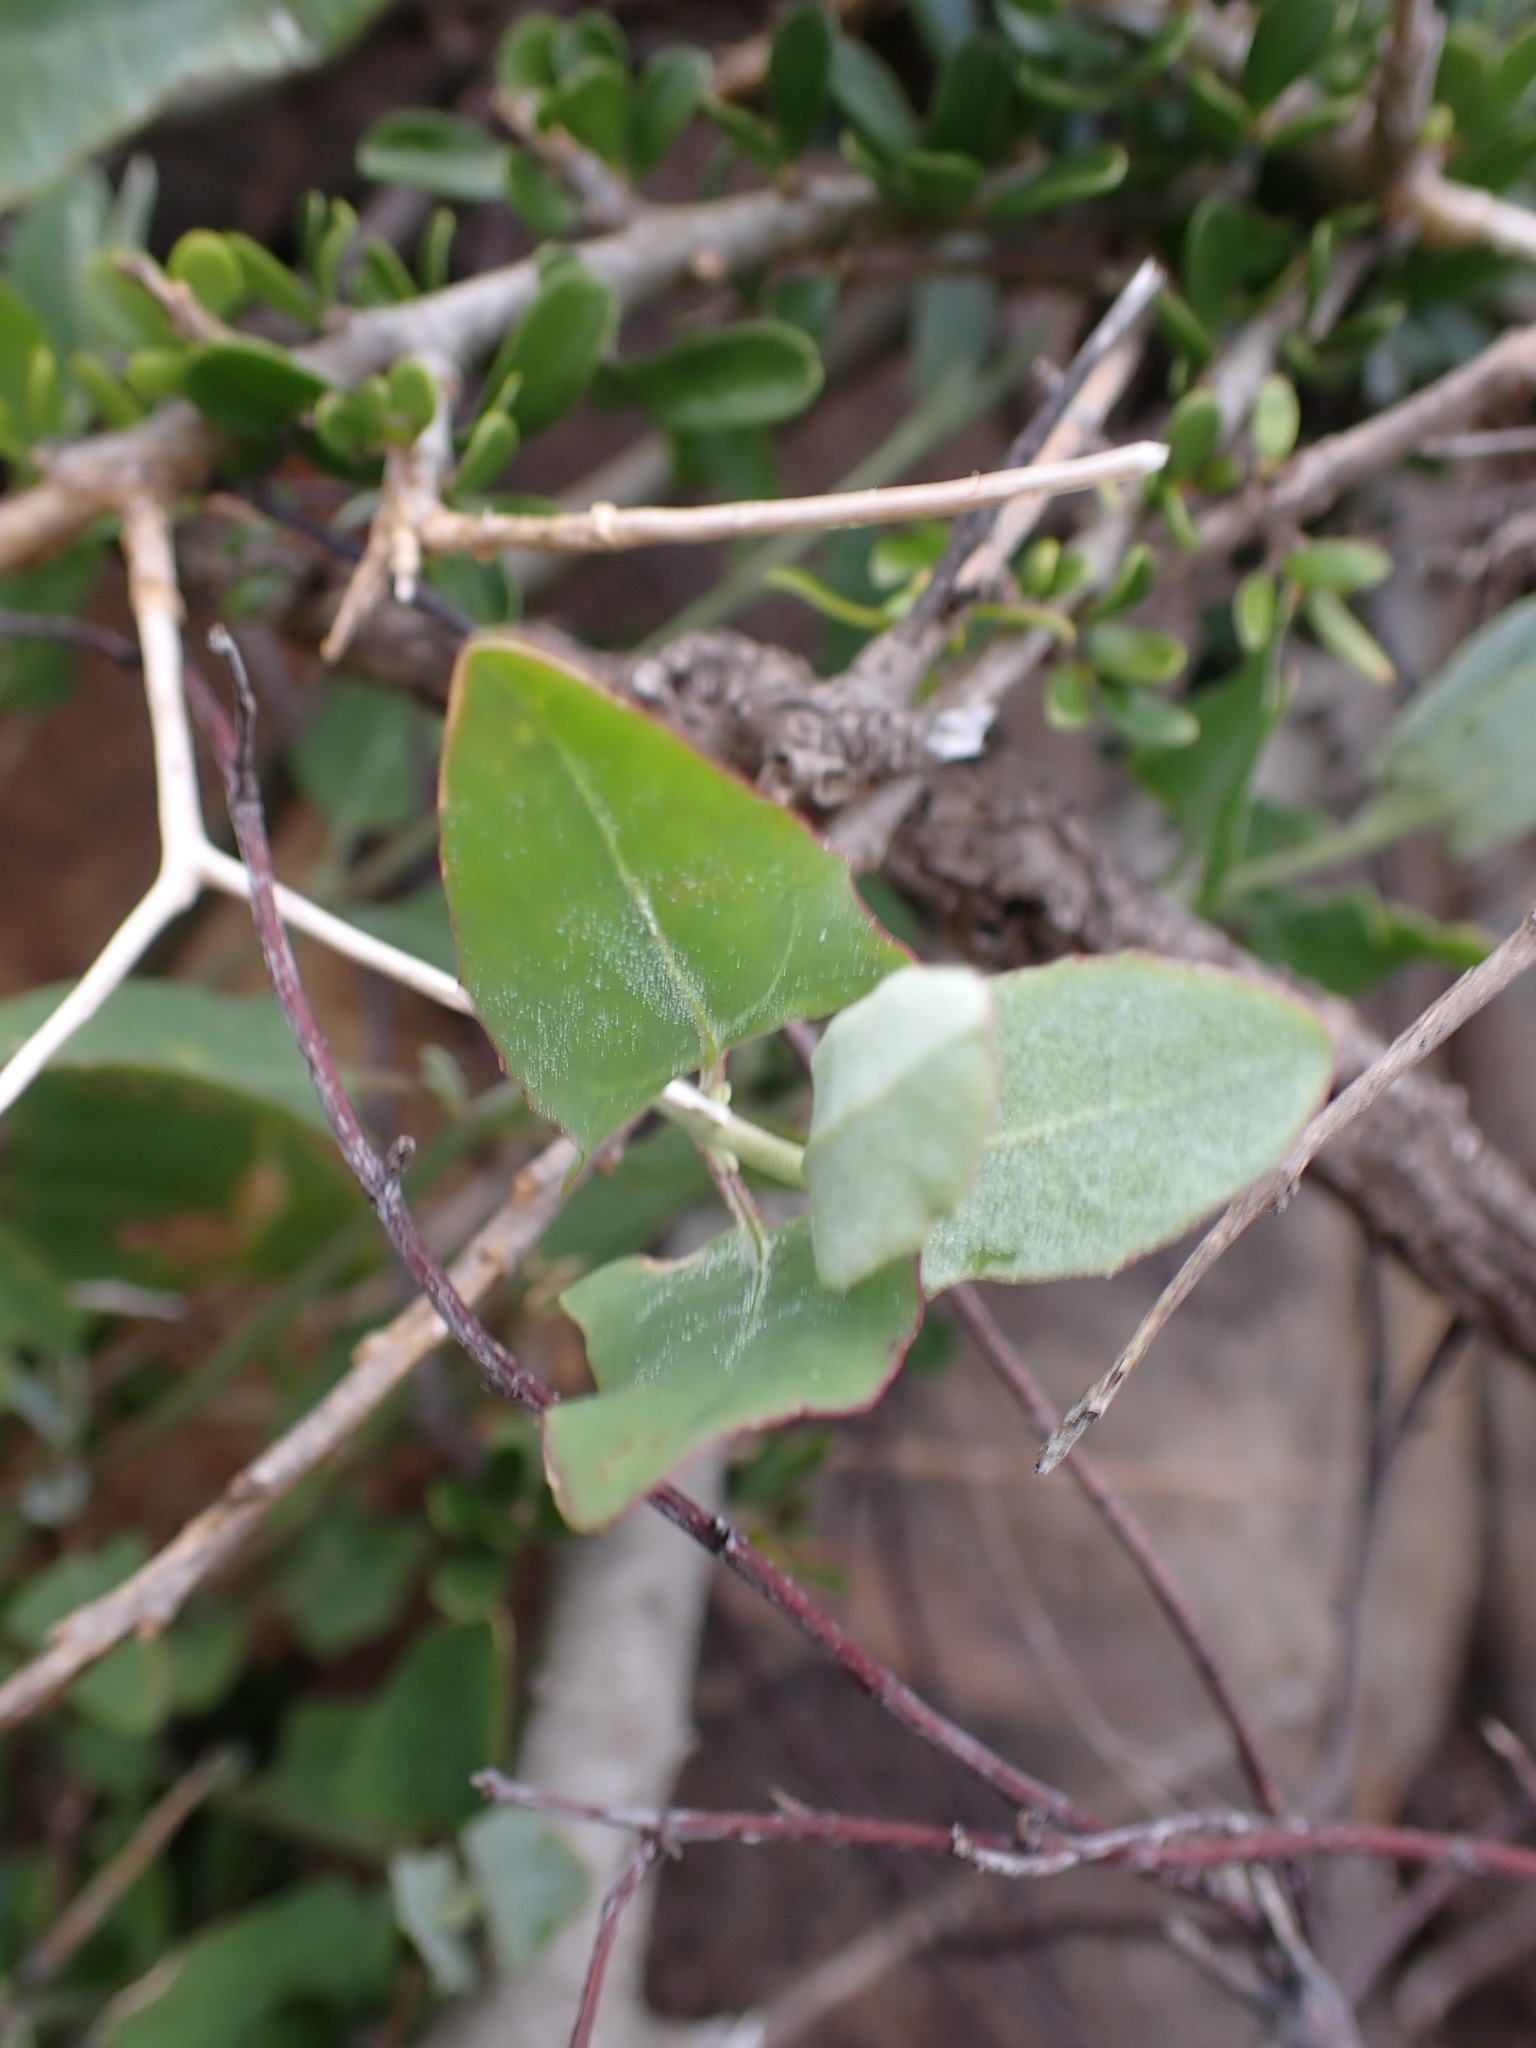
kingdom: Plantae
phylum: Tracheophyta
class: Magnoliopsida
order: Caryophyllales
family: Amaranthaceae
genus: Atriplex
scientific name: Atriplex prostrata
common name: Spear-leaved orache
